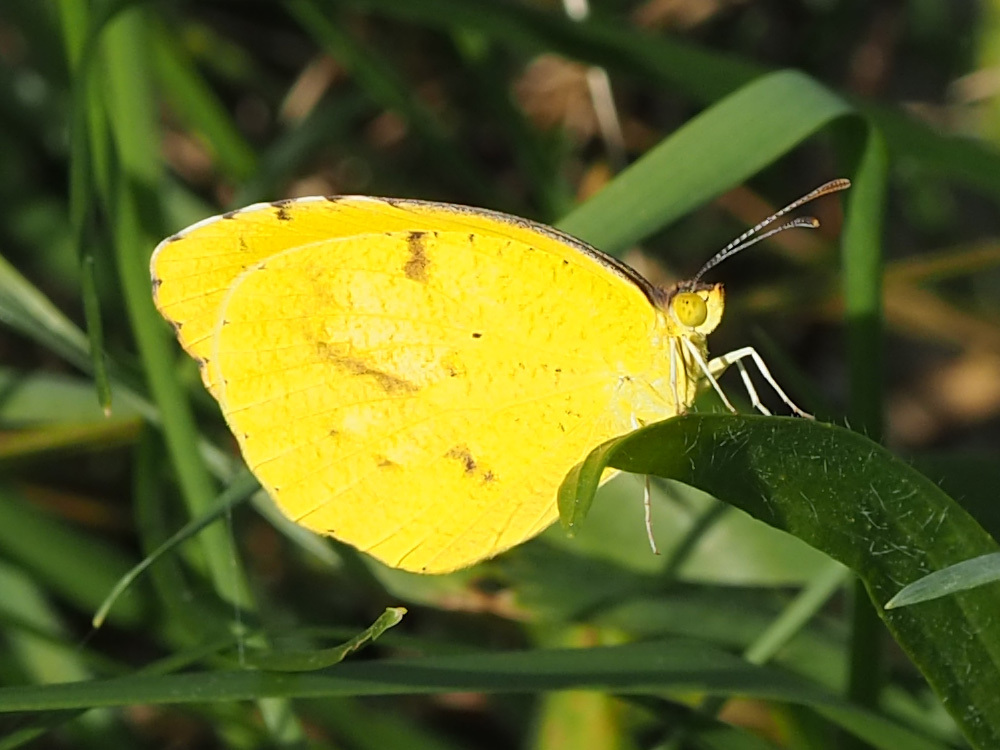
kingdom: Animalia
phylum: Arthropoda
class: Insecta
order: Lepidoptera
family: Pieridae
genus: Abaeis
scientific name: Abaeis nicippe
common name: Sleepy orange
